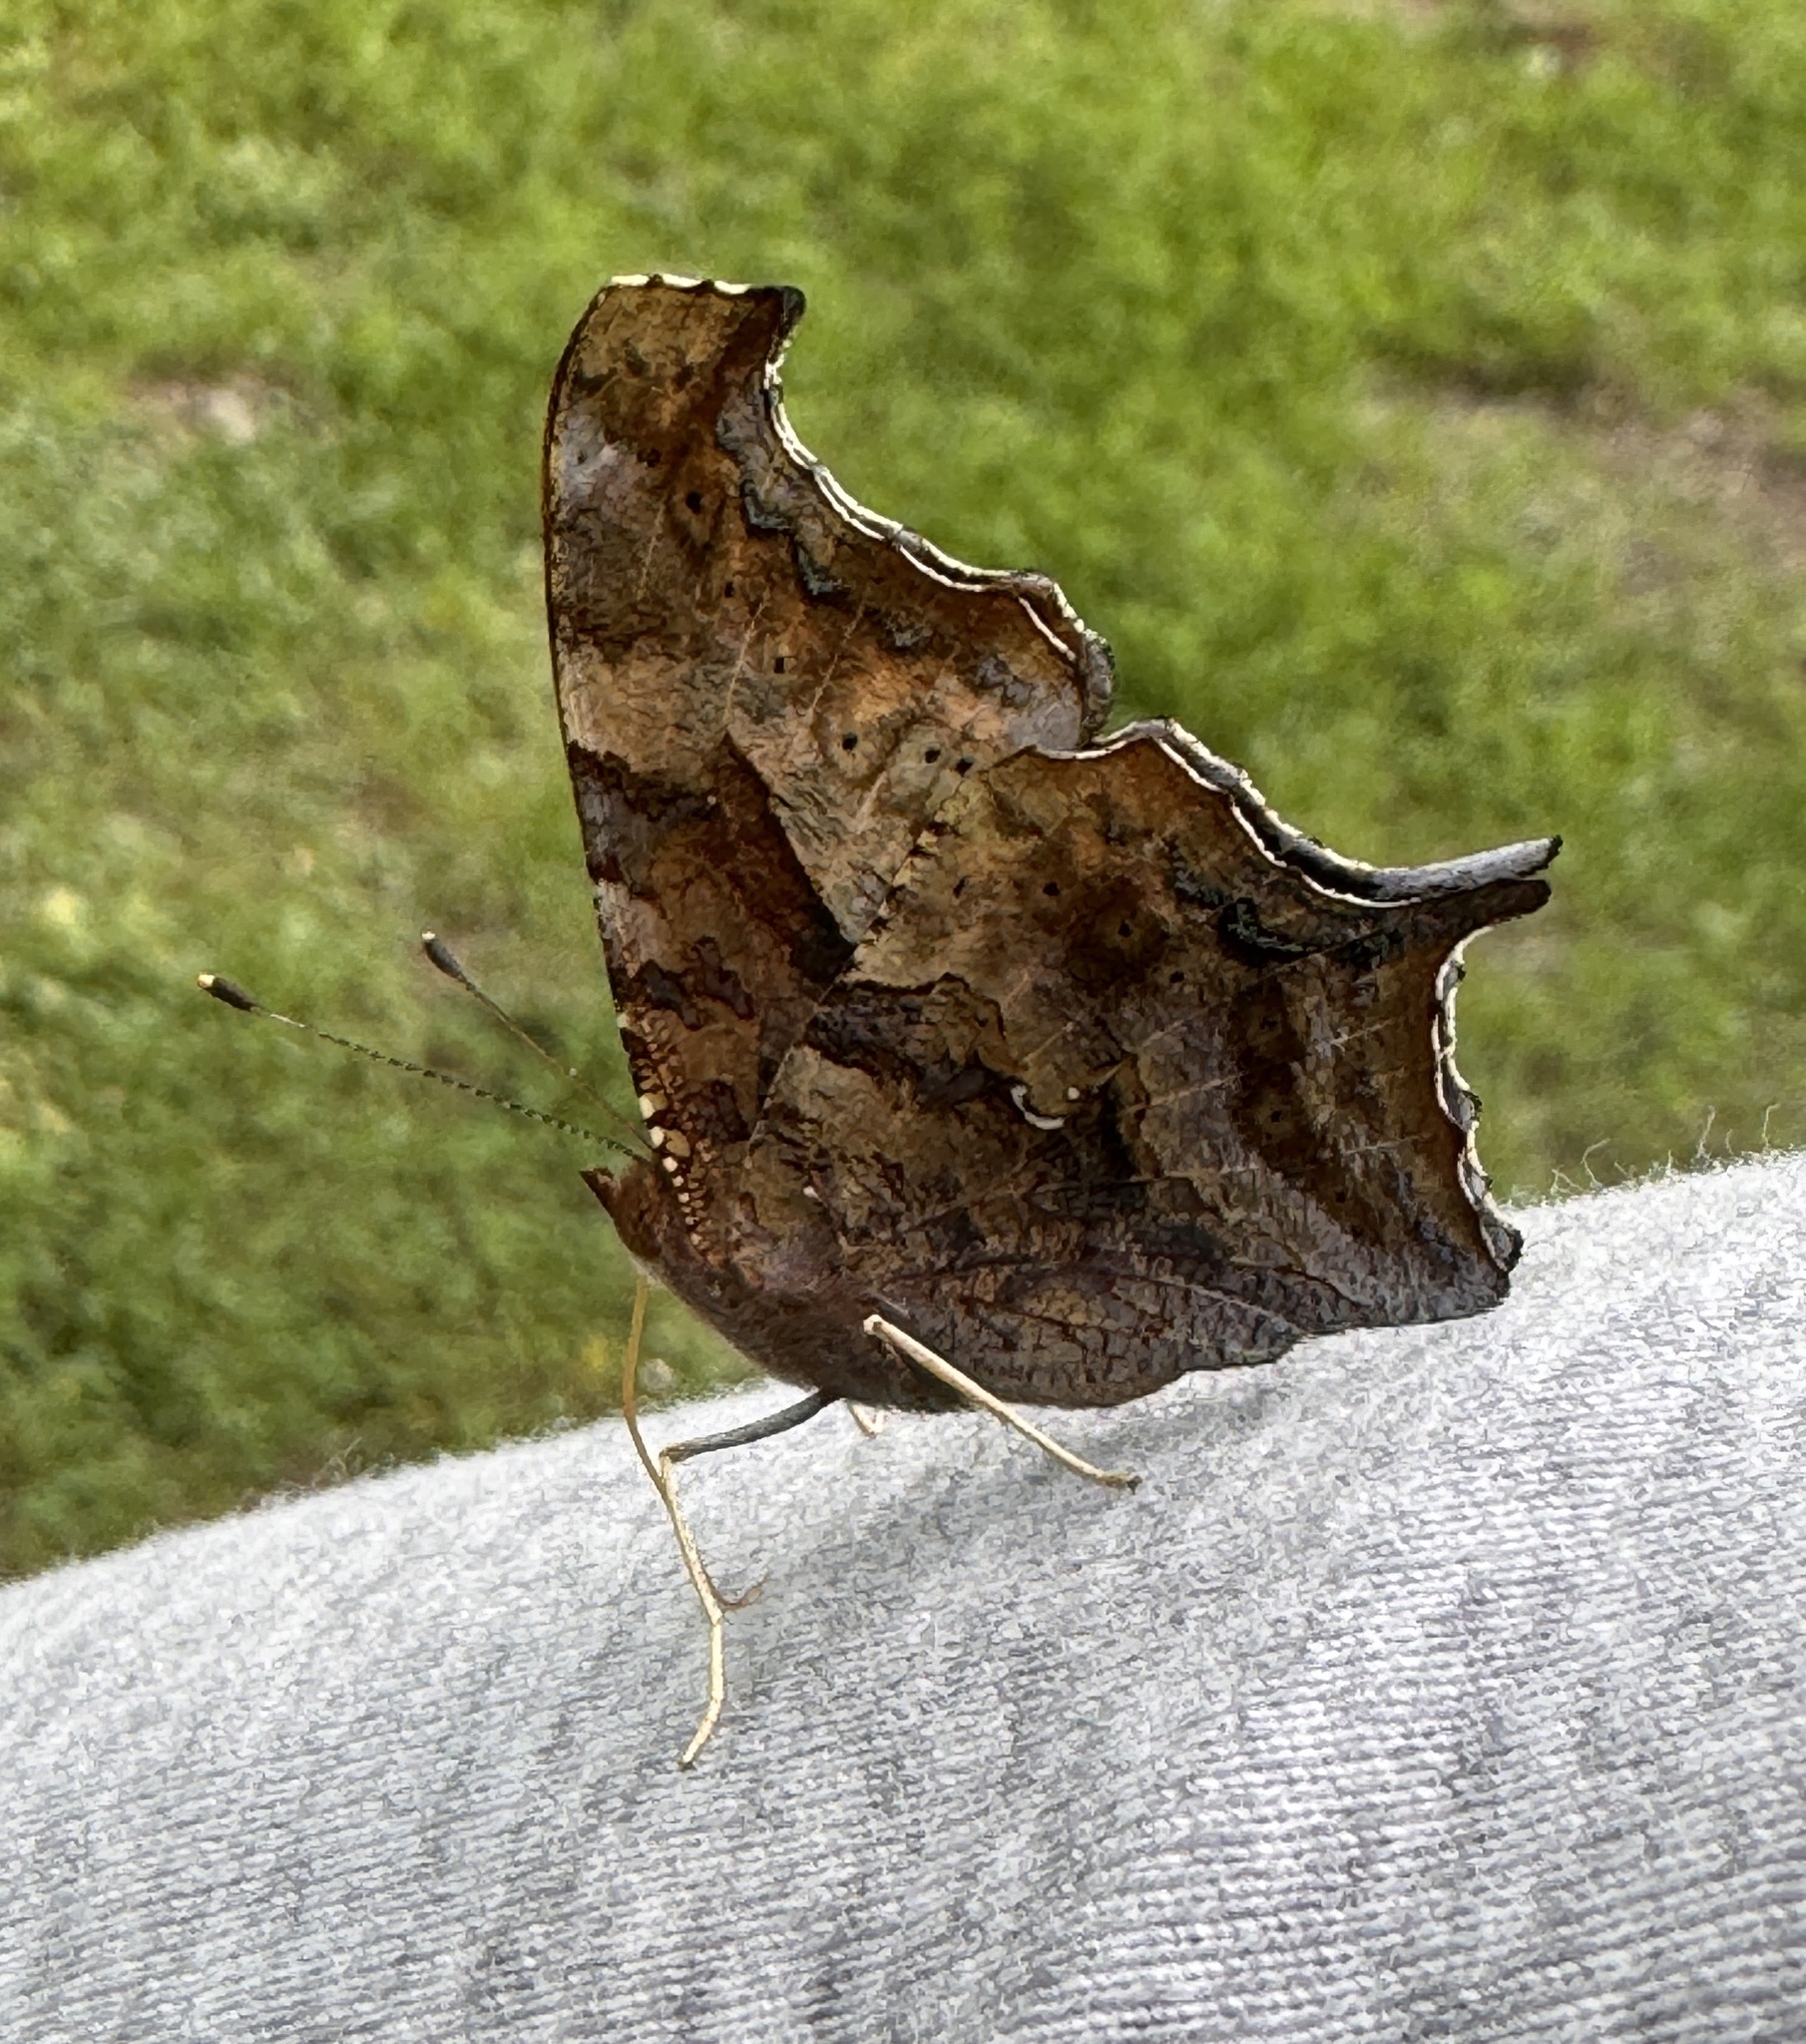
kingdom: Animalia
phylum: Arthropoda
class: Insecta
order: Lepidoptera
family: Nymphalidae
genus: Polygonia
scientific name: Polygonia interrogationis
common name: Question mark
